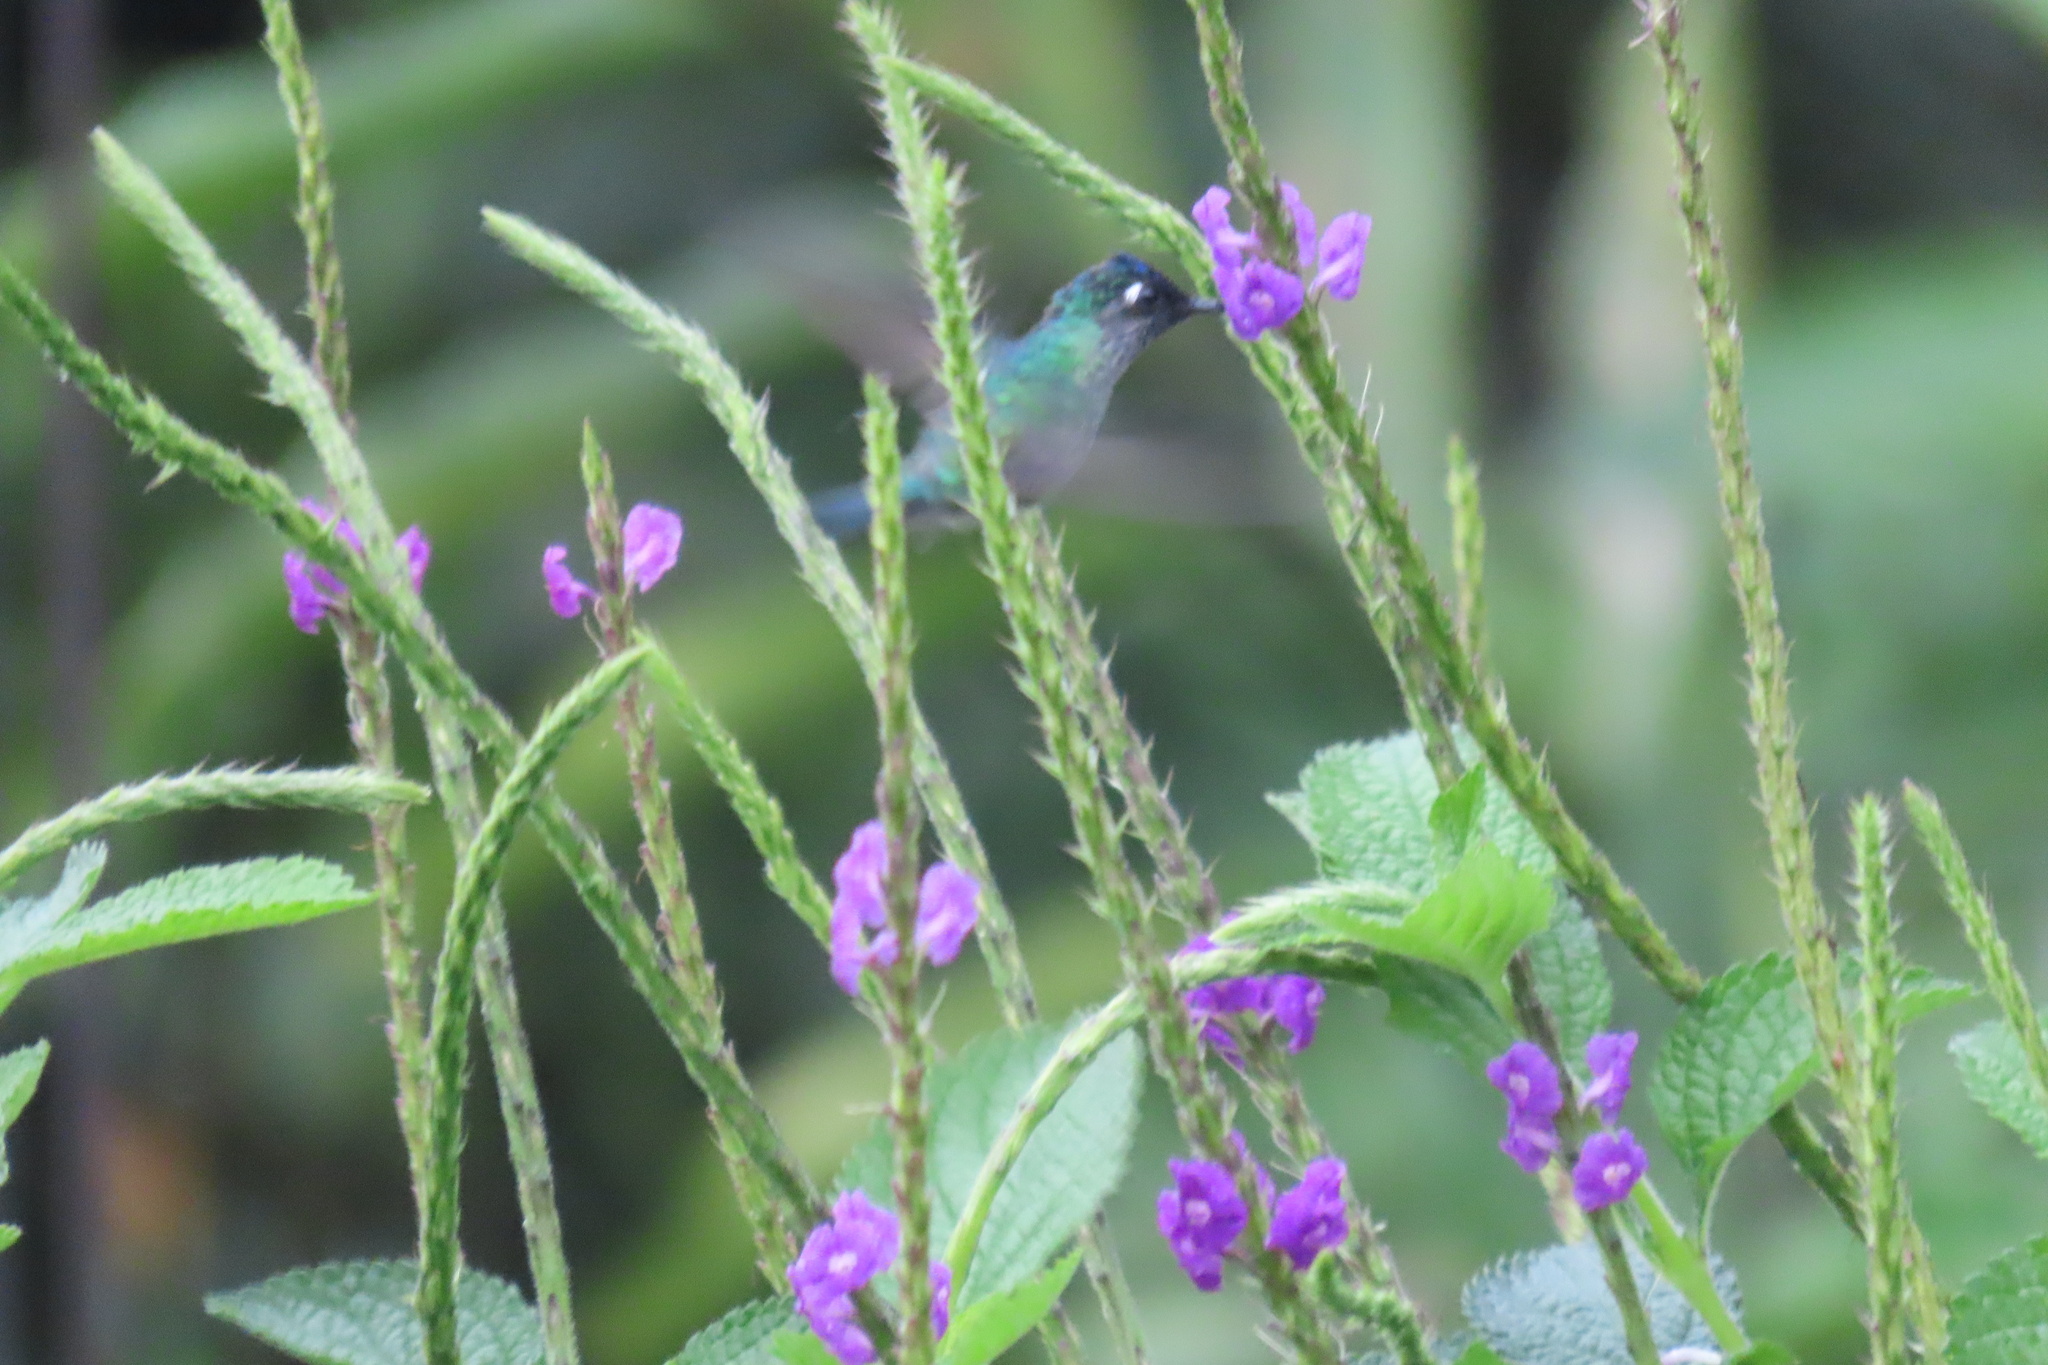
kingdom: Animalia
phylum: Chordata
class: Aves
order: Apodiformes
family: Trochilidae
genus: Klais
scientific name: Klais guimeti
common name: Violet-headed hummingbird
